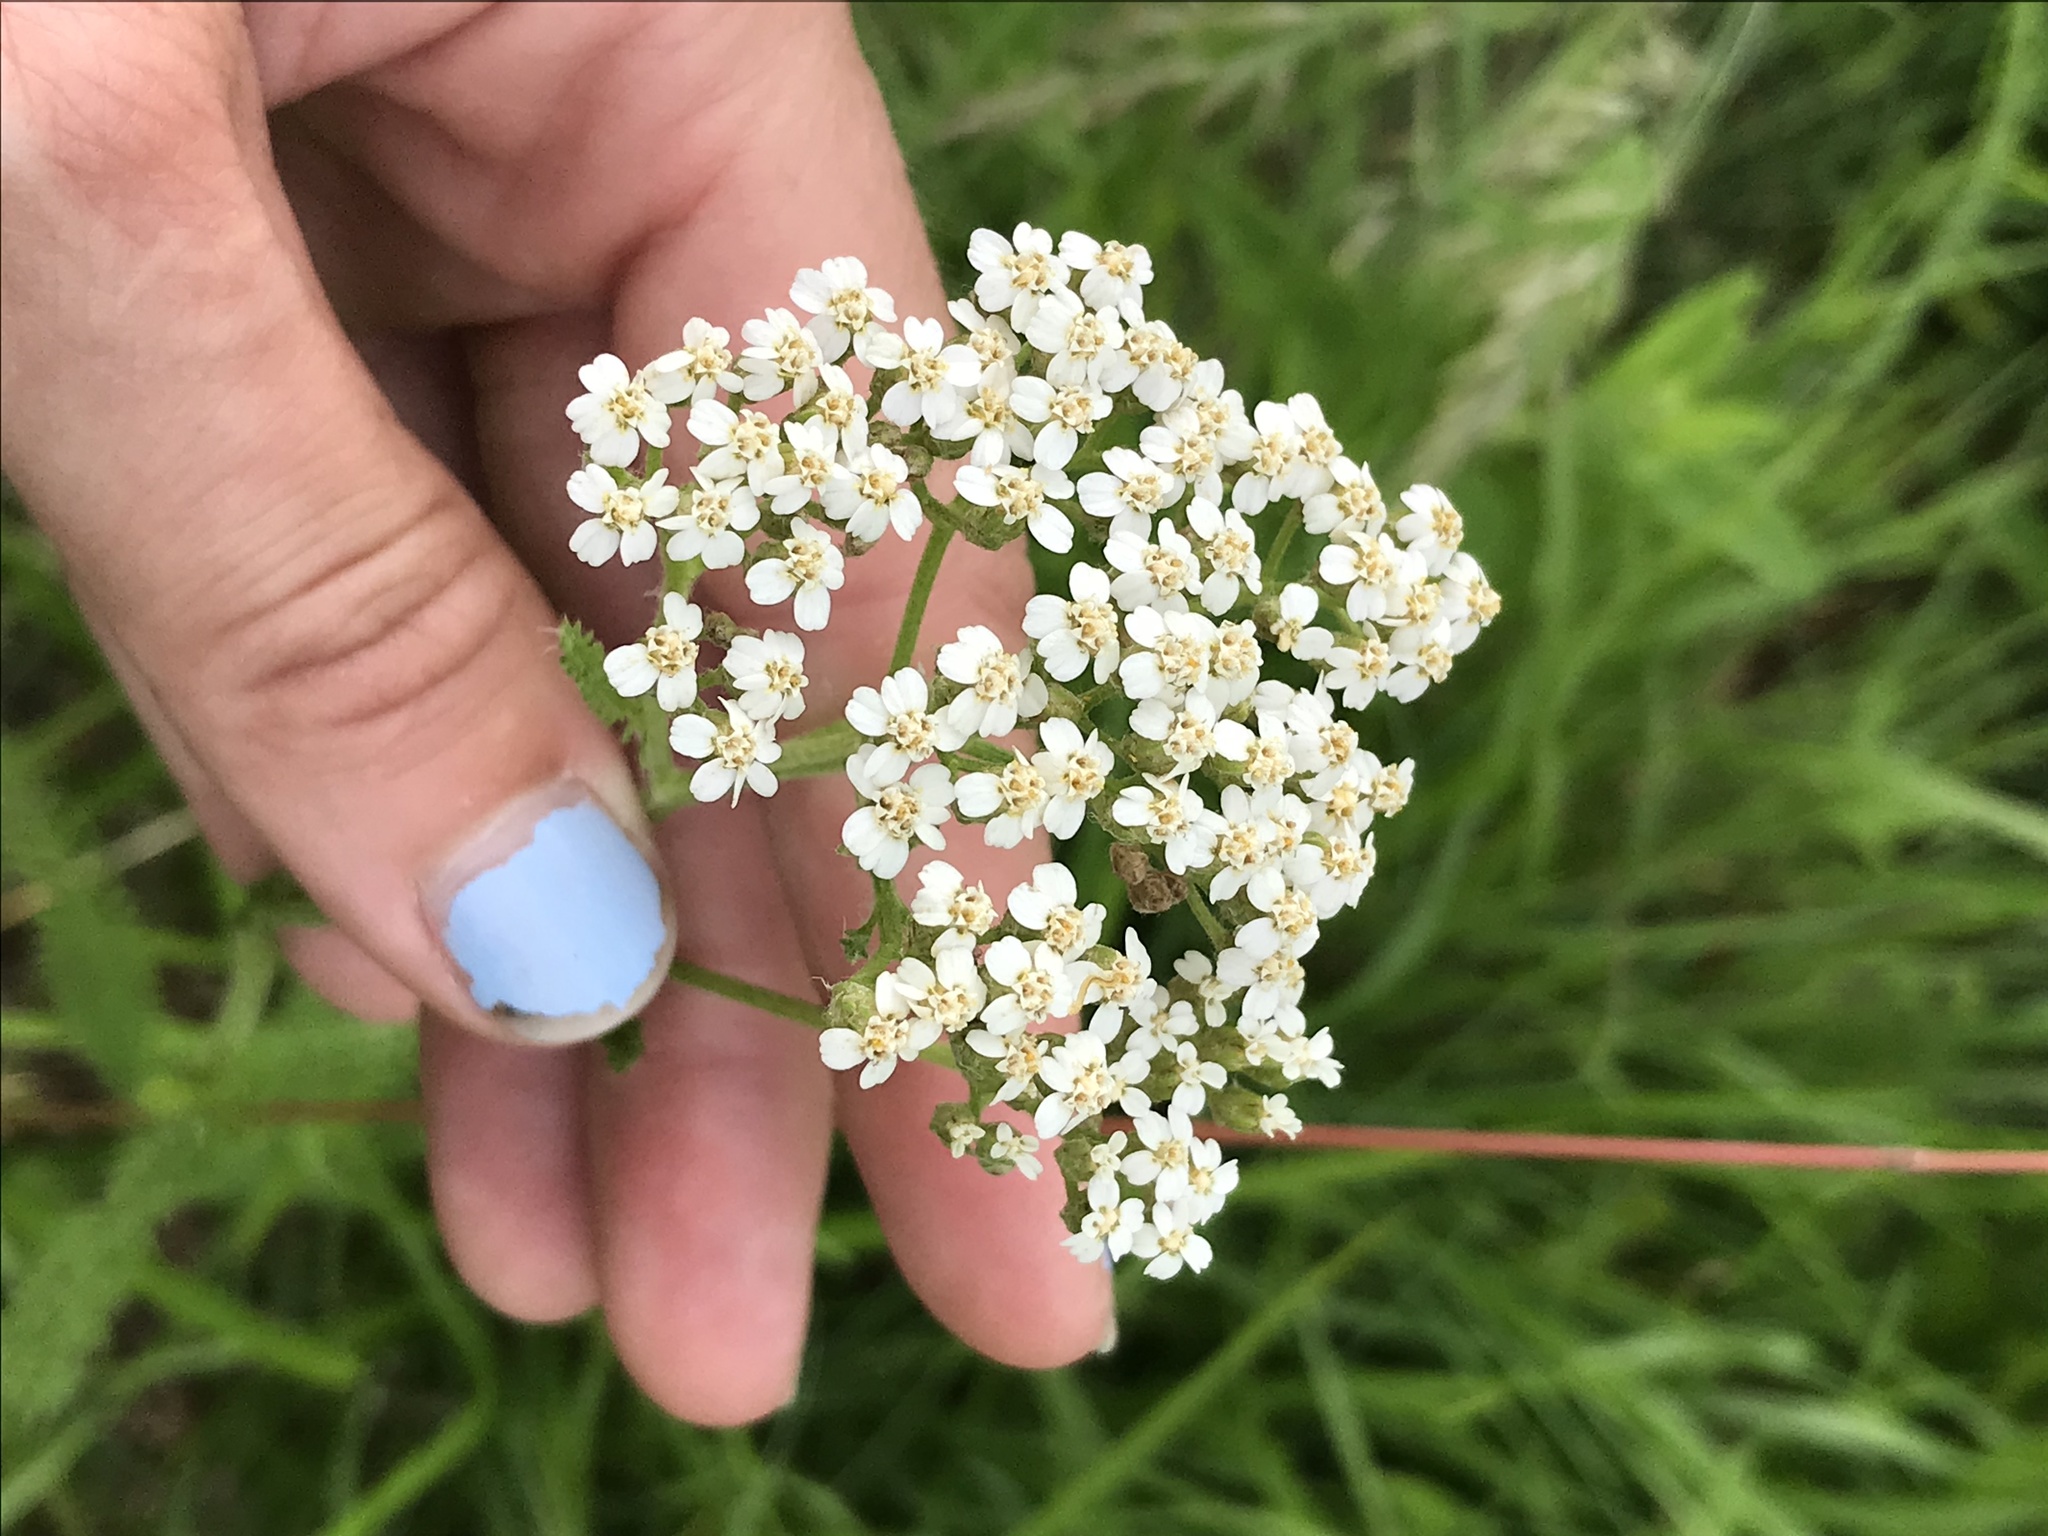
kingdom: Plantae
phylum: Tracheophyta
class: Magnoliopsida
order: Asterales
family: Asteraceae
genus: Achillea
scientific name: Achillea millefolium
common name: Yarrow
